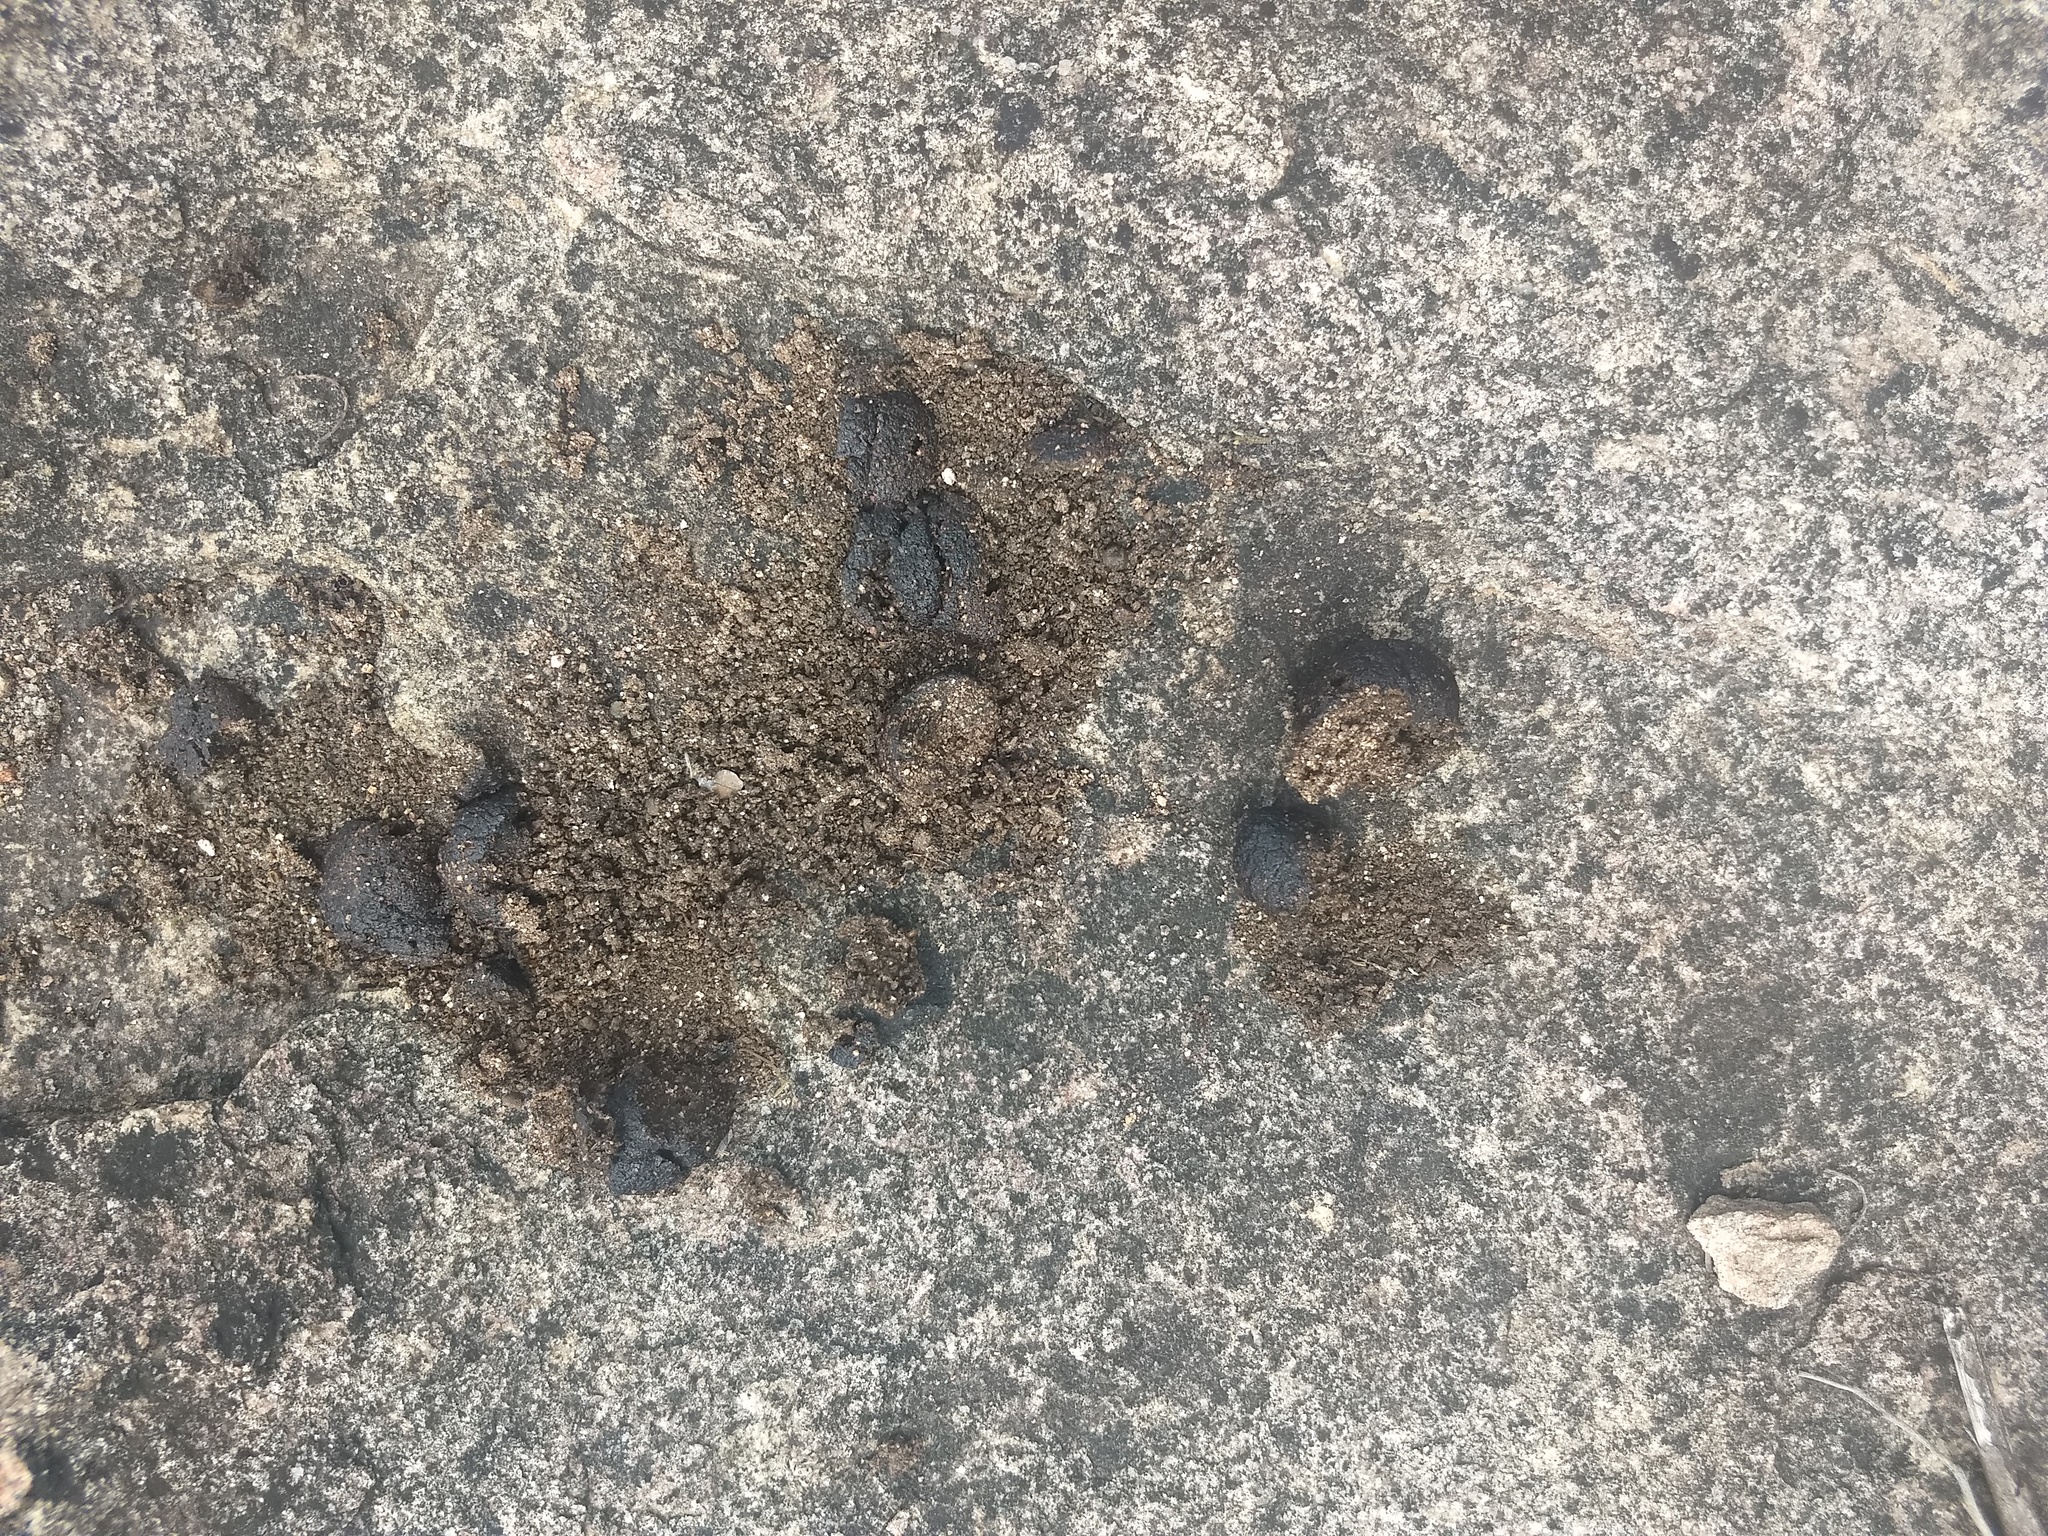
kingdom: Animalia
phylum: Chordata
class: Mammalia
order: Carnivora
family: Ursidae
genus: Melursus
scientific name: Melursus ursinus
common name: Sloth bear
